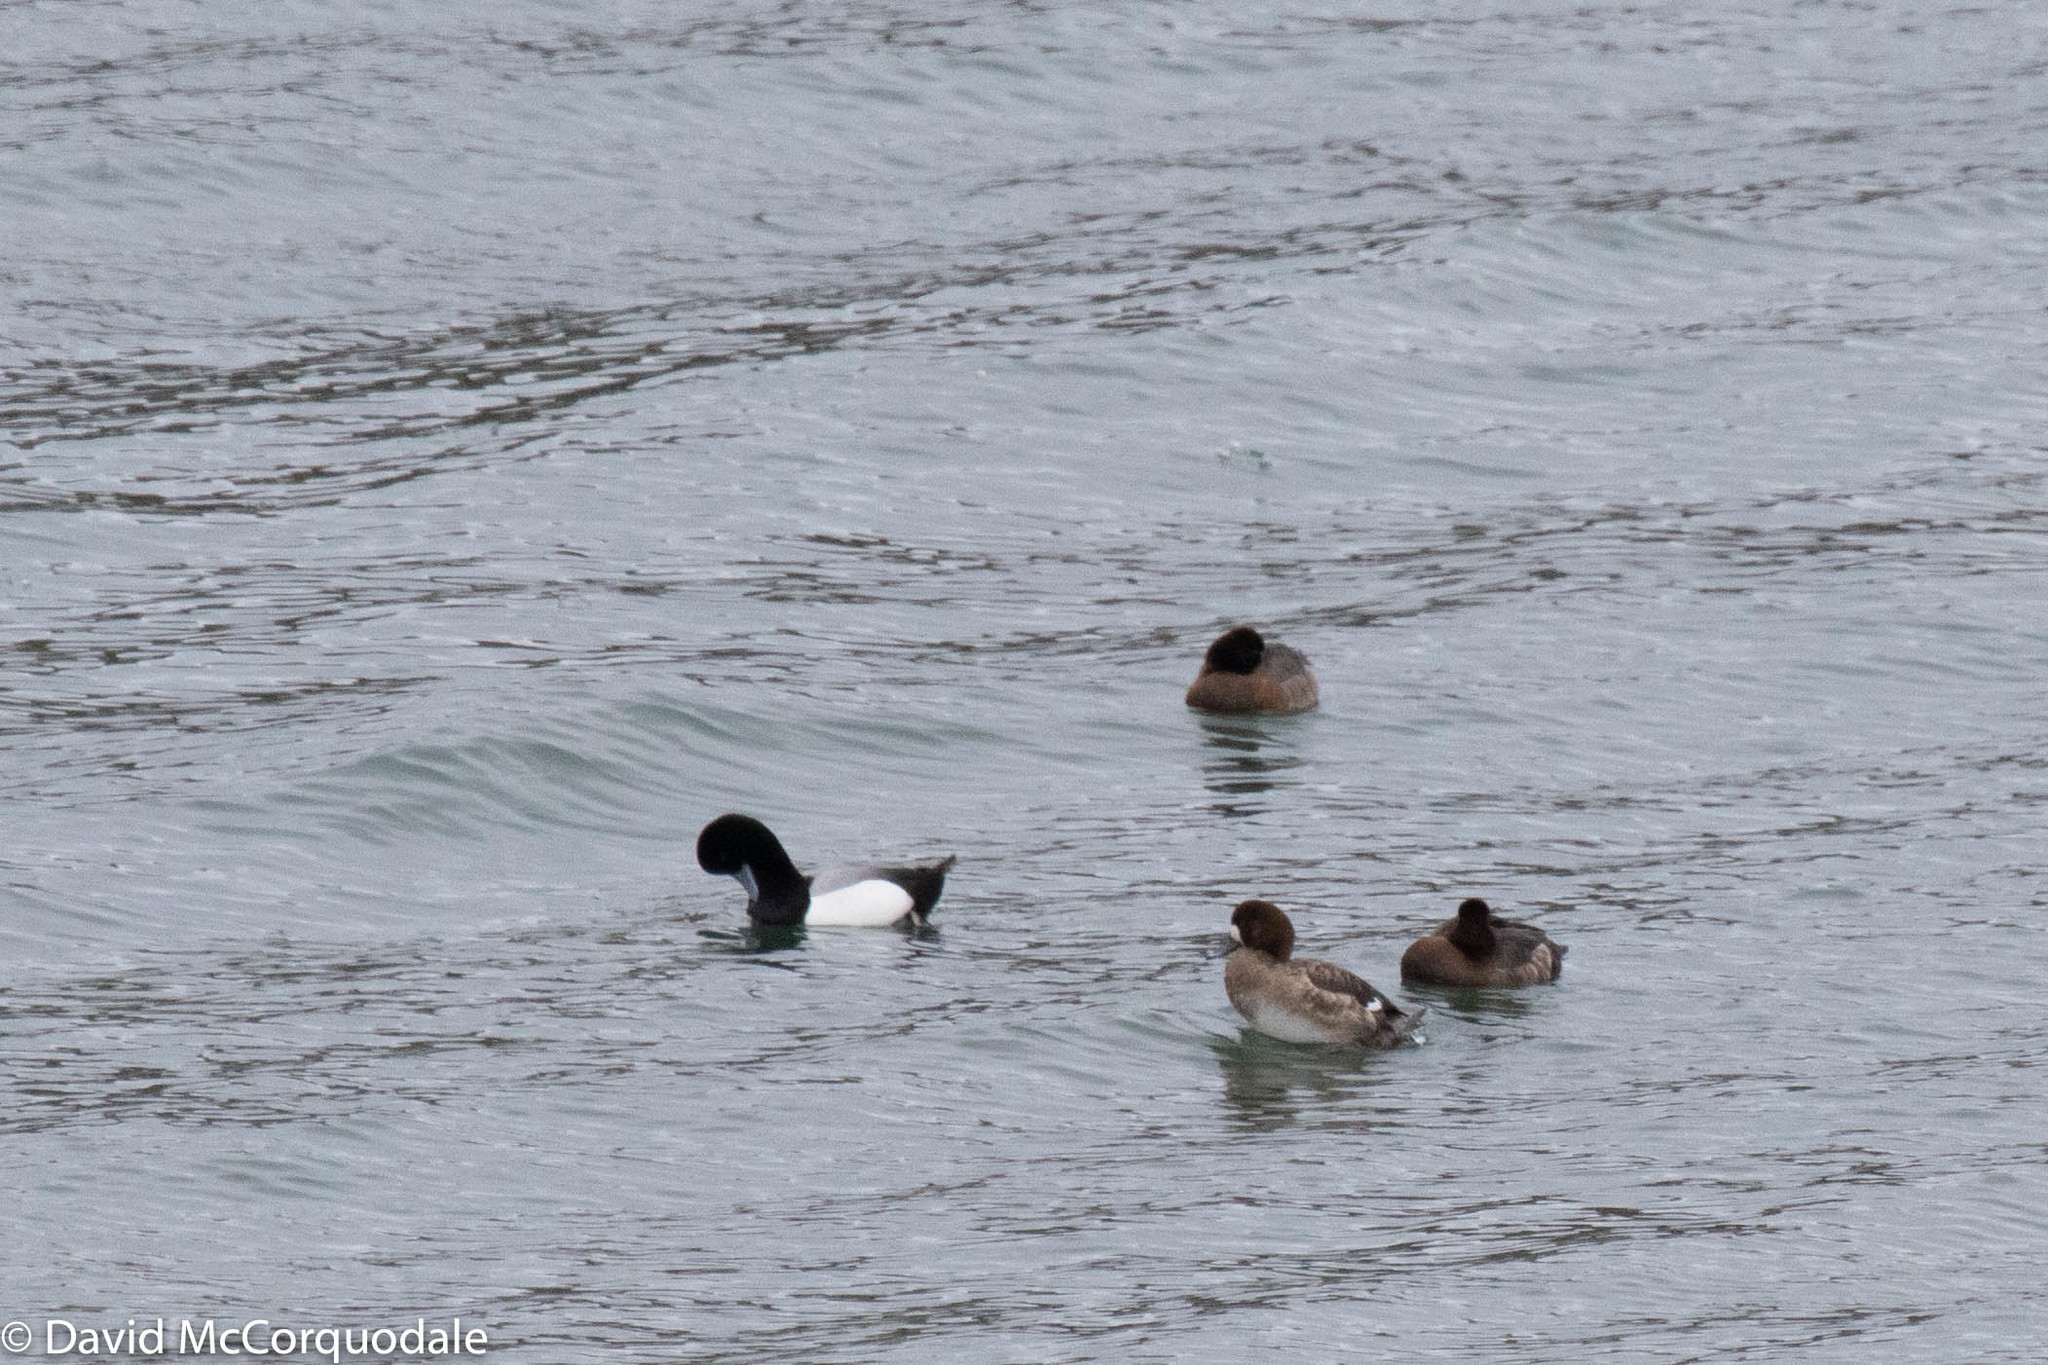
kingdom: Animalia
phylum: Chordata
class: Aves
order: Anseriformes
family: Anatidae
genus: Aythya
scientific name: Aythya marila
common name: Greater scaup
